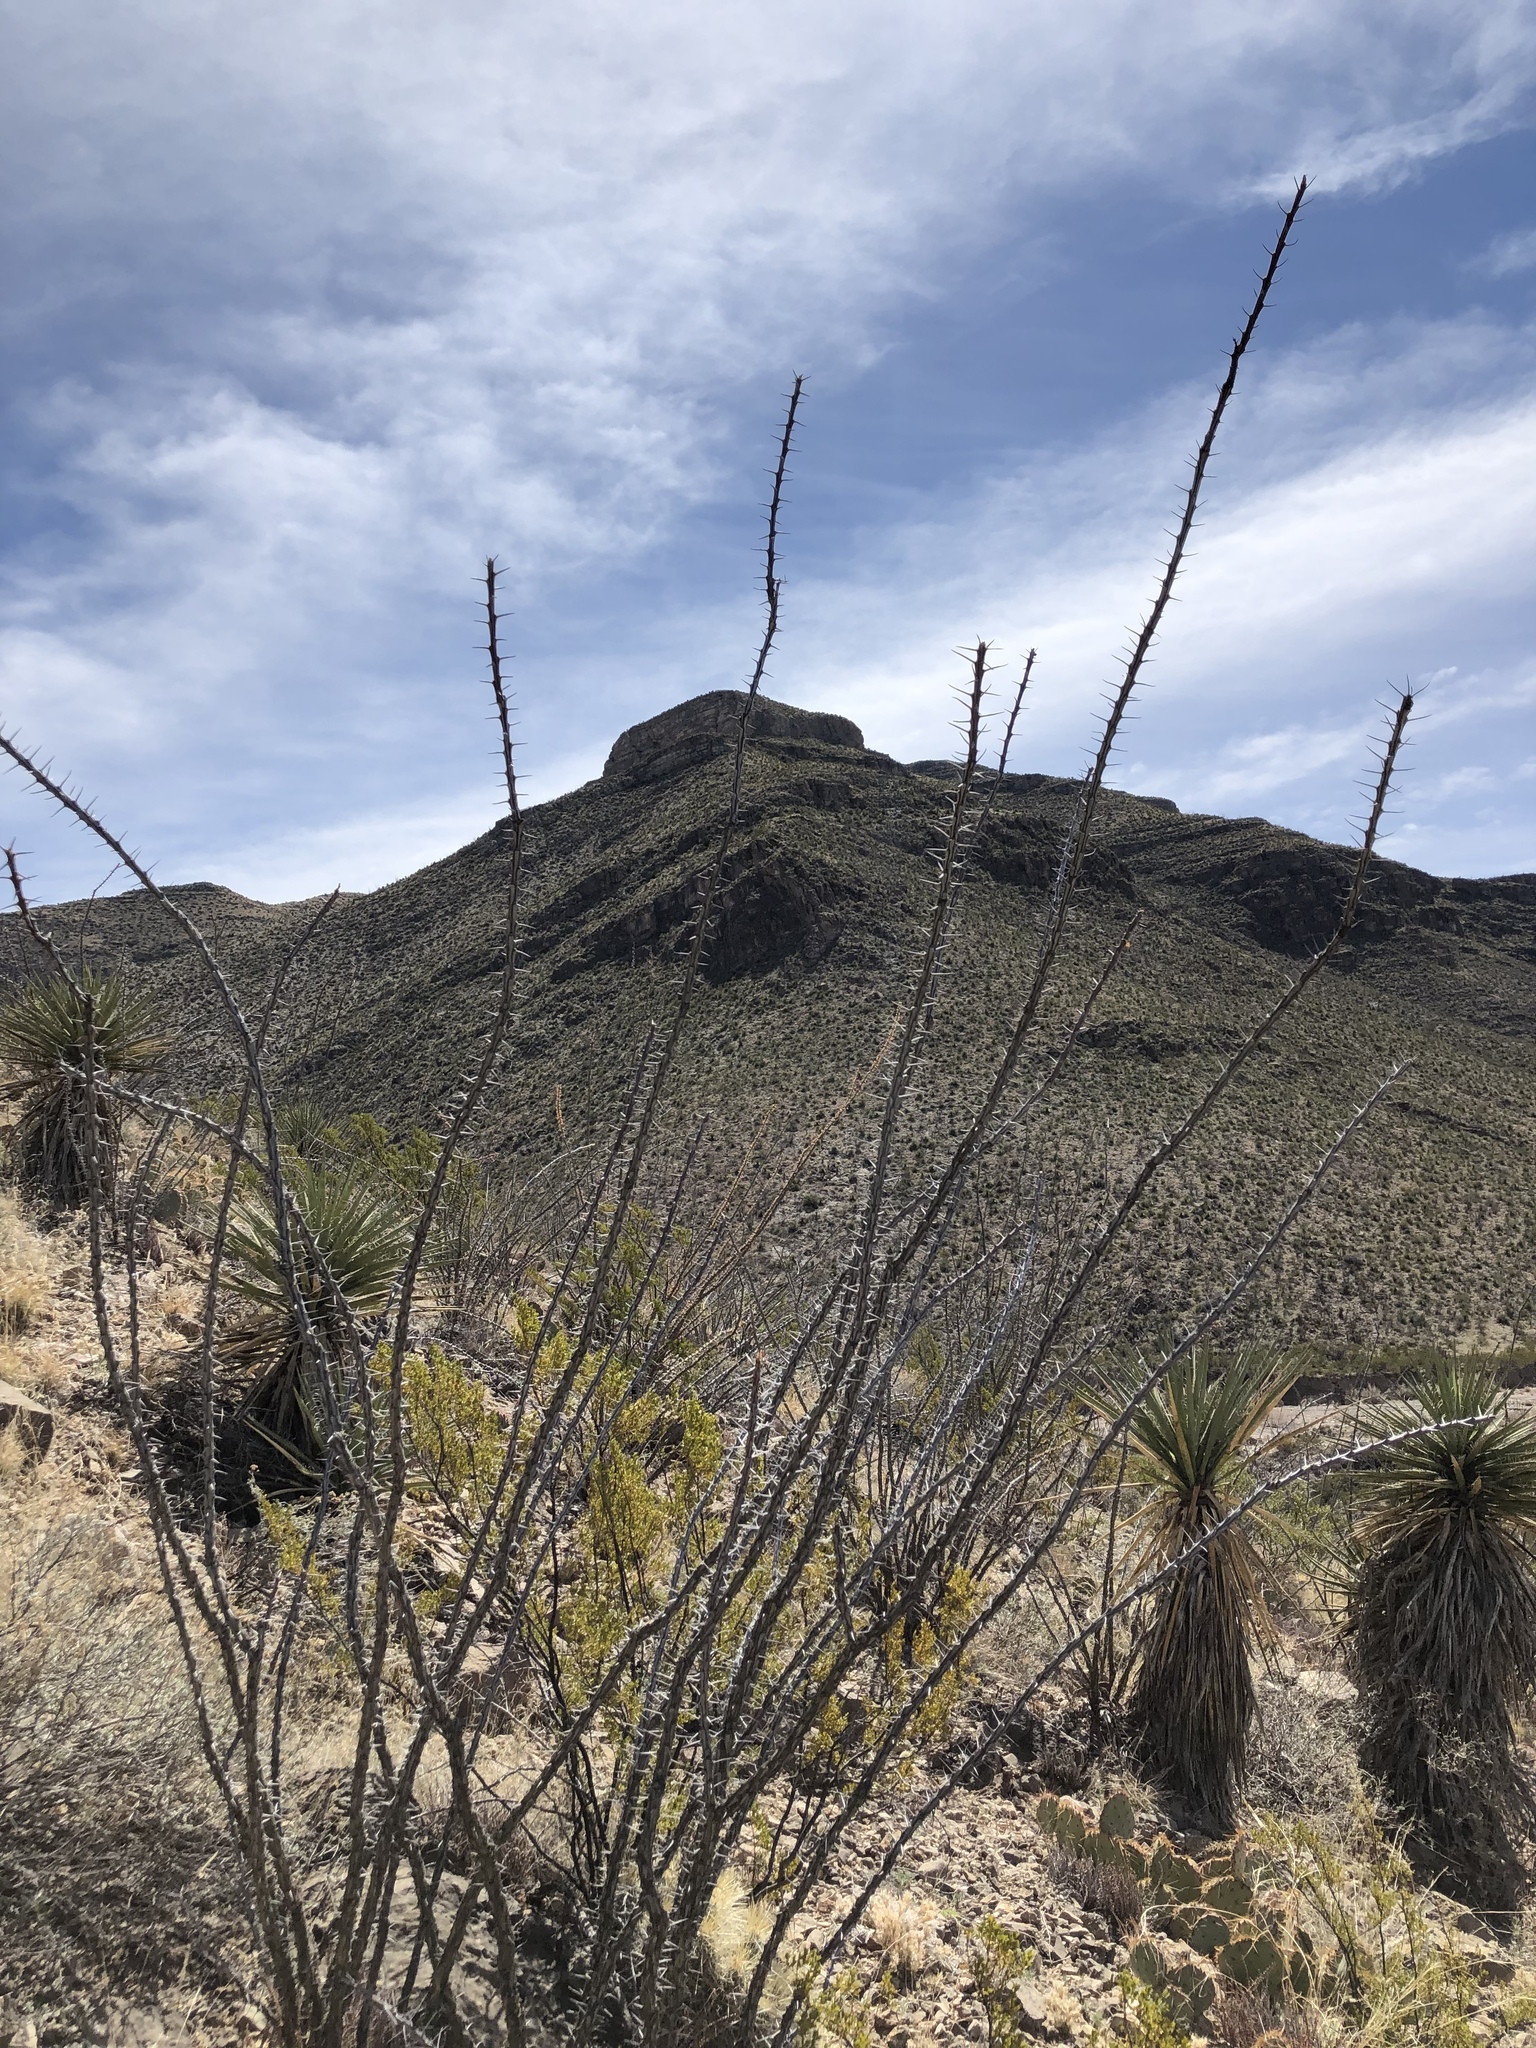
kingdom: Plantae
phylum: Tracheophyta
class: Magnoliopsida
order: Ericales
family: Fouquieriaceae
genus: Fouquieria
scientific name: Fouquieria splendens
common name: Vine-cactus
